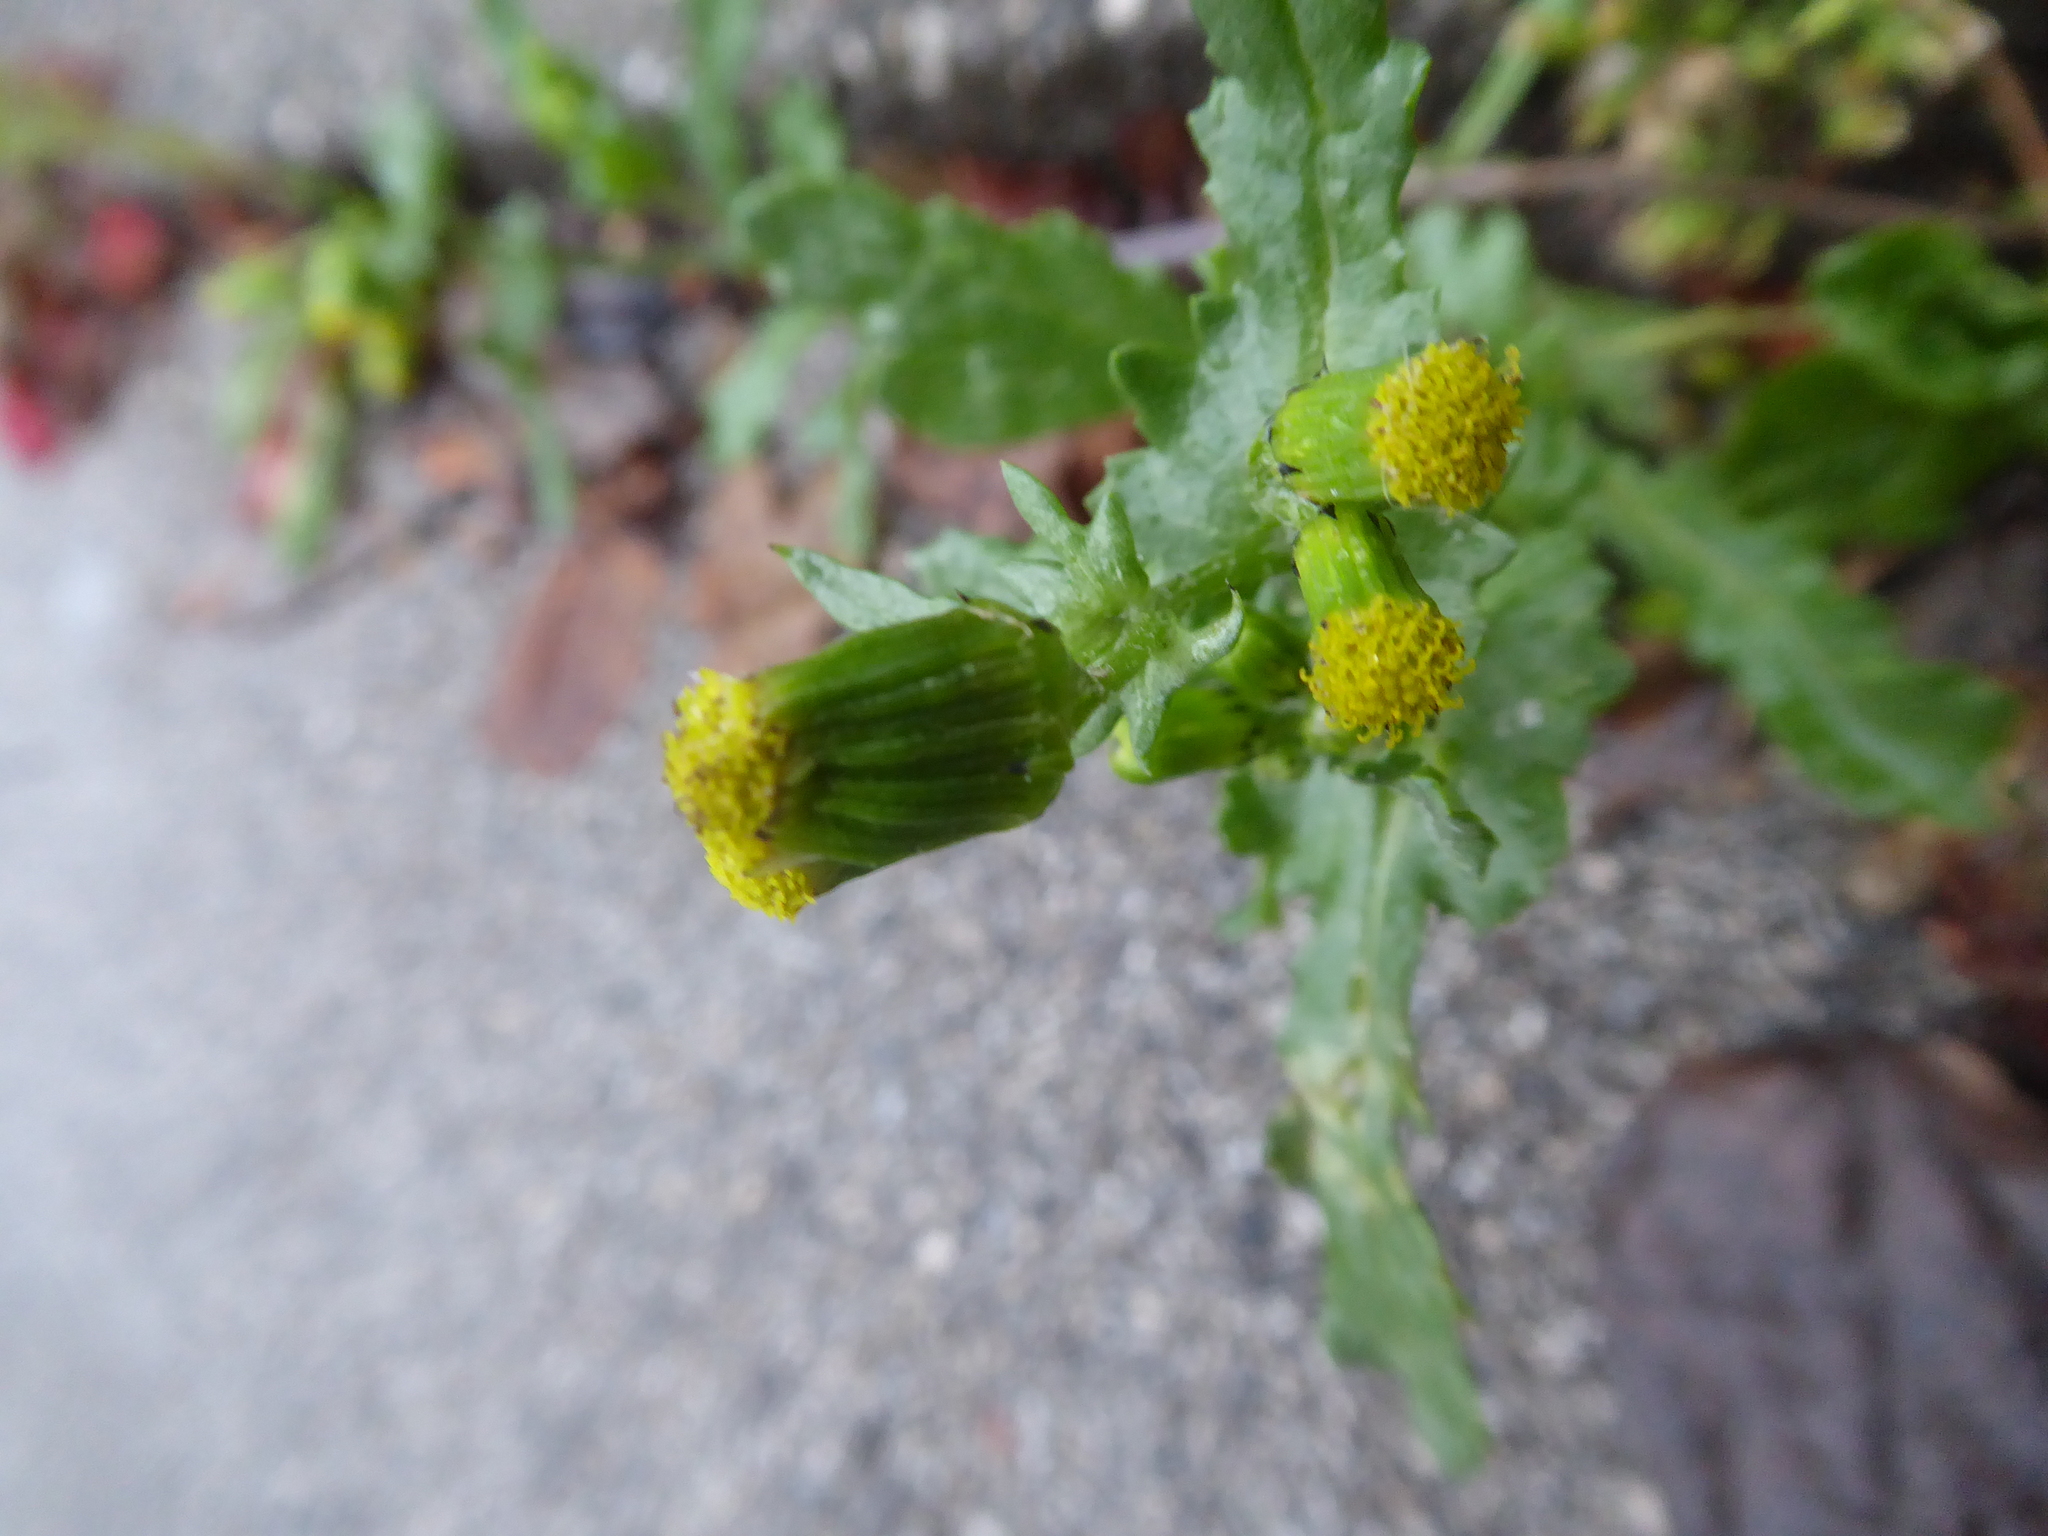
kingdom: Plantae
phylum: Tracheophyta
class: Magnoliopsida
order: Asterales
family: Asteraceae
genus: Senecio
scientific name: Senecio vulgaris
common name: Old-man-in-the-spring
